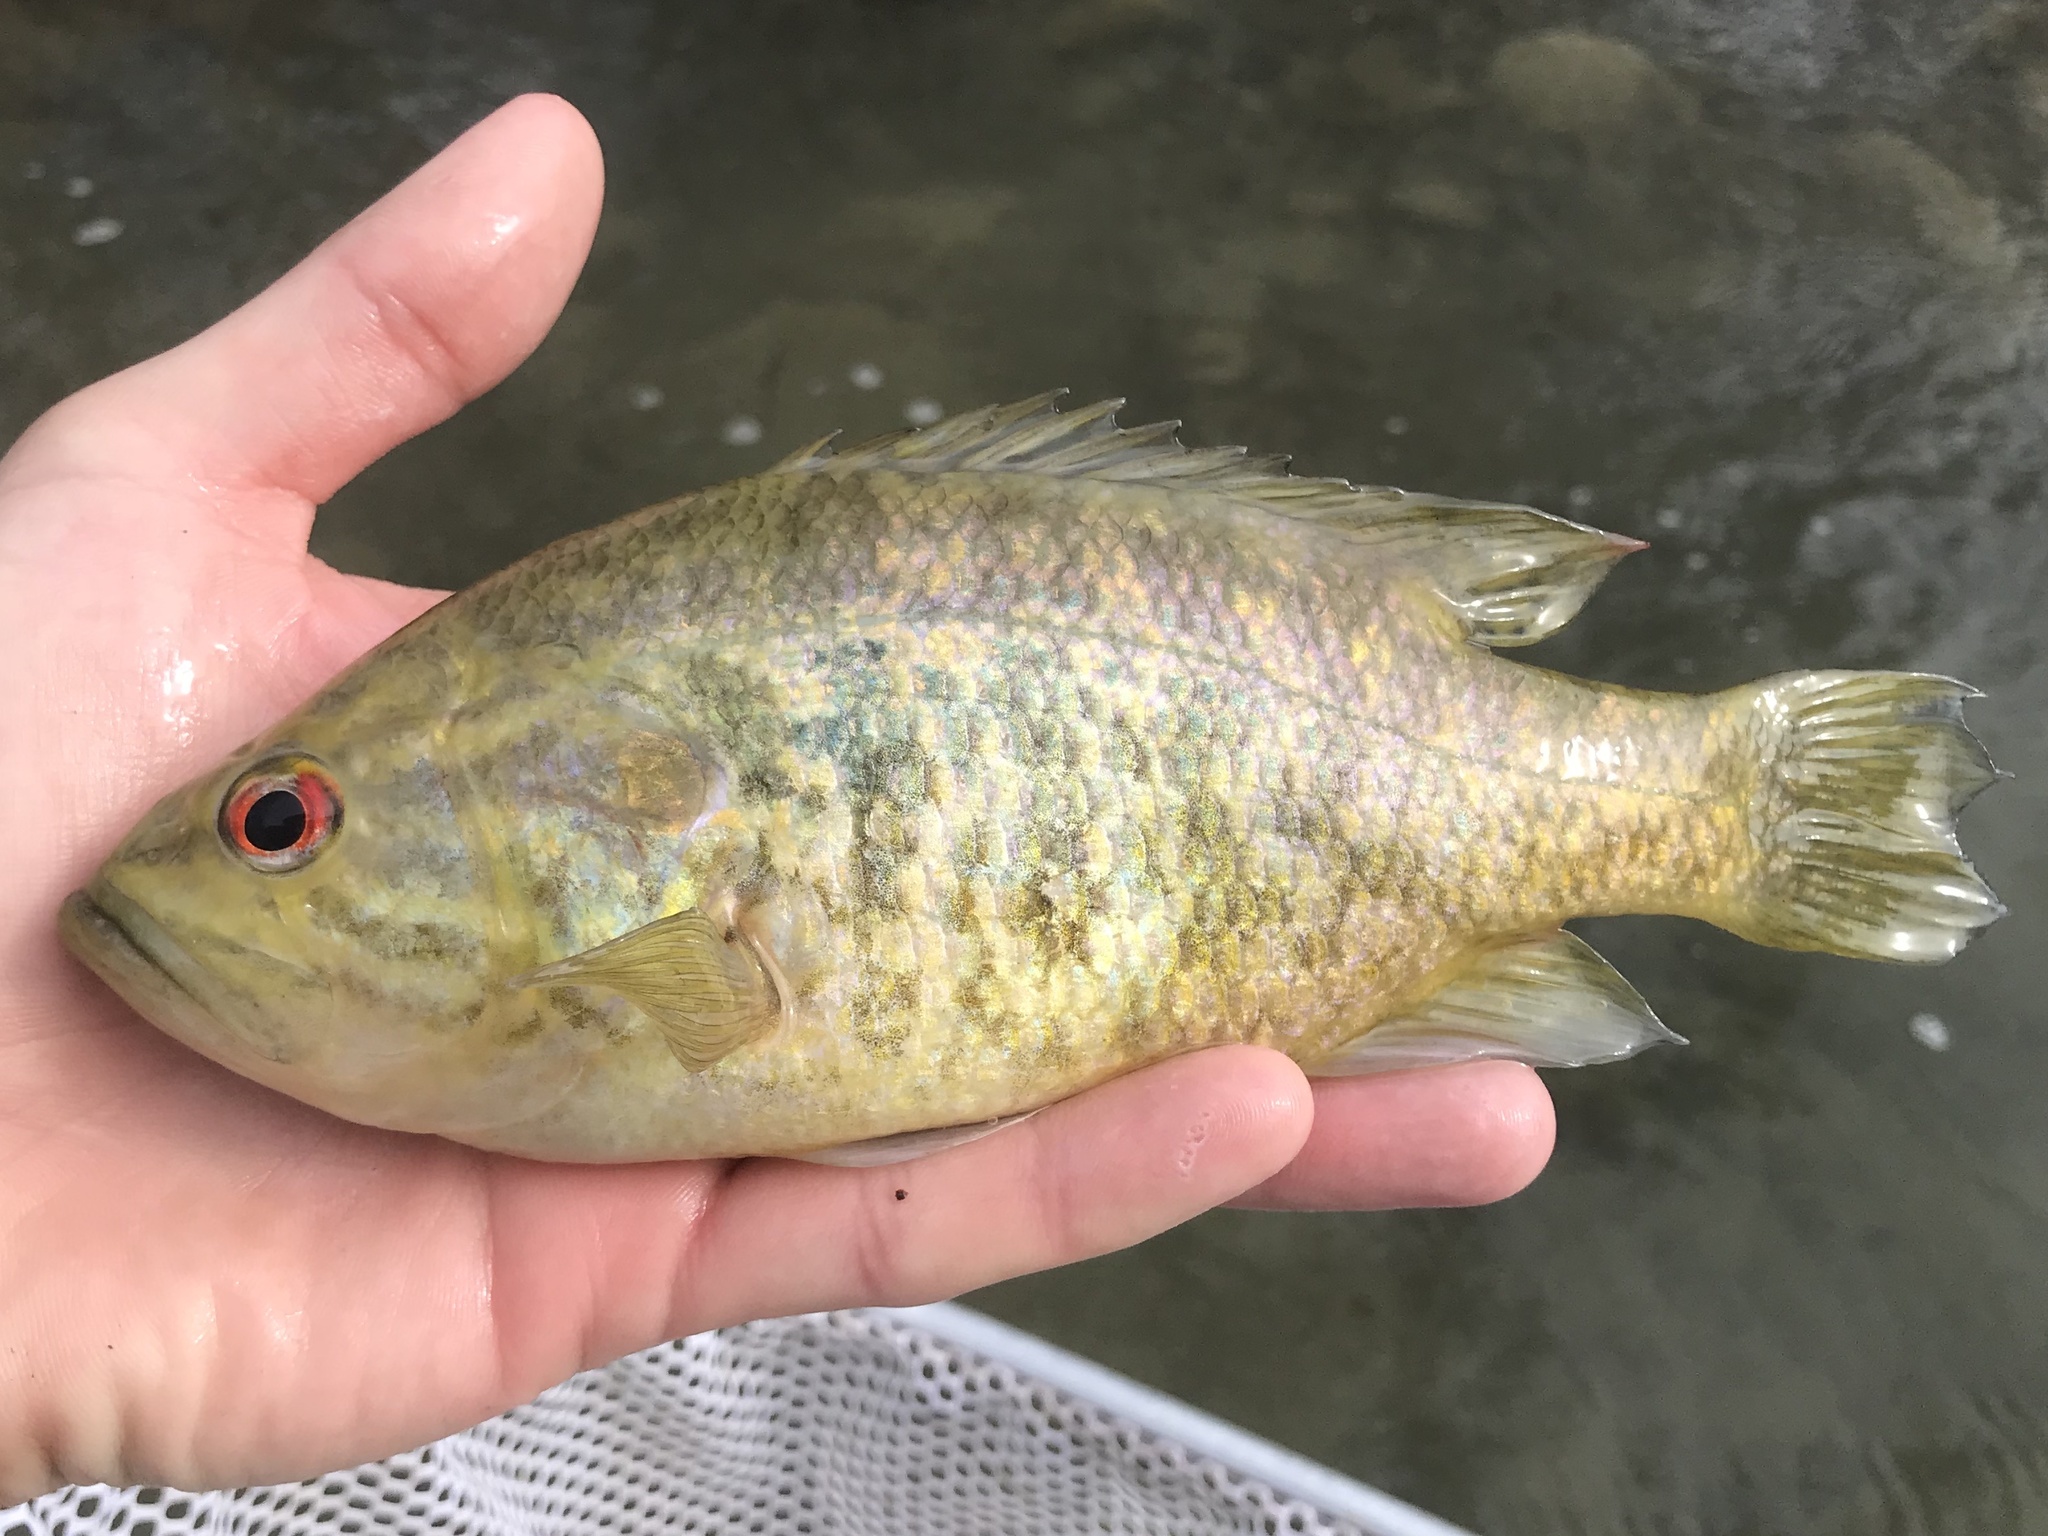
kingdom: Animalia
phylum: Chordata
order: Perciformes
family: Centrarchidae
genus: Lepomis
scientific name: Lepomis gulosus
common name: Warmouth
